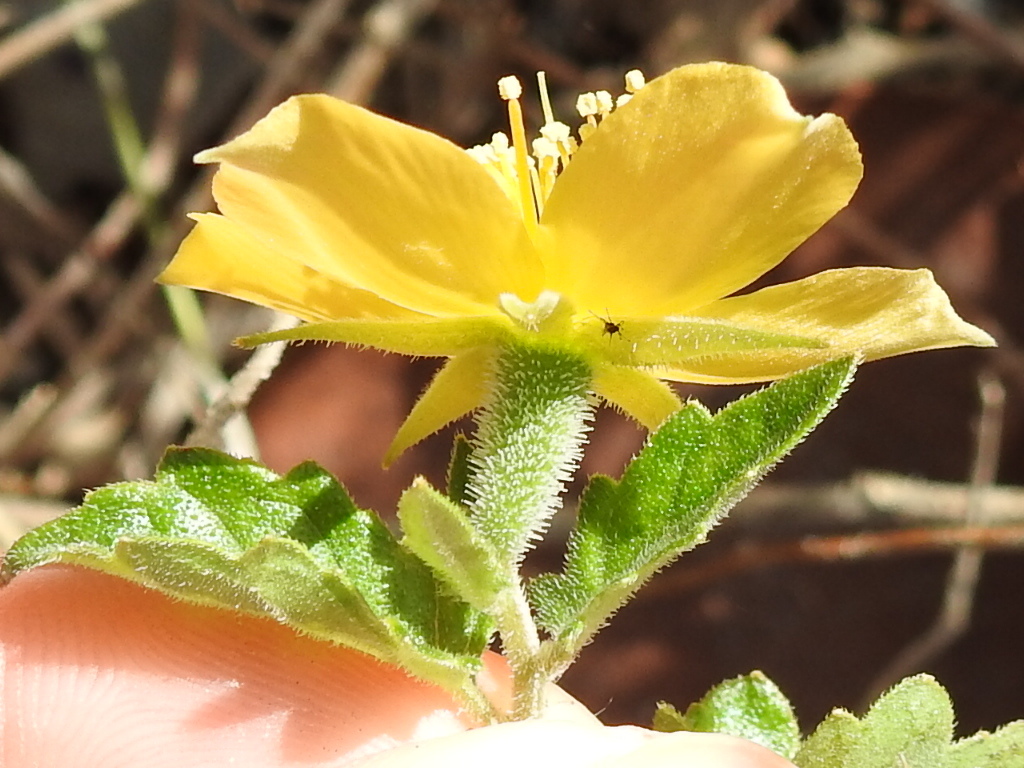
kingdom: Plantae
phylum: Tracheophyta
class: Magnoliopsida
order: Cornales
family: Loasaceae
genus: Mentzelia
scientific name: Mentzelia floridana
